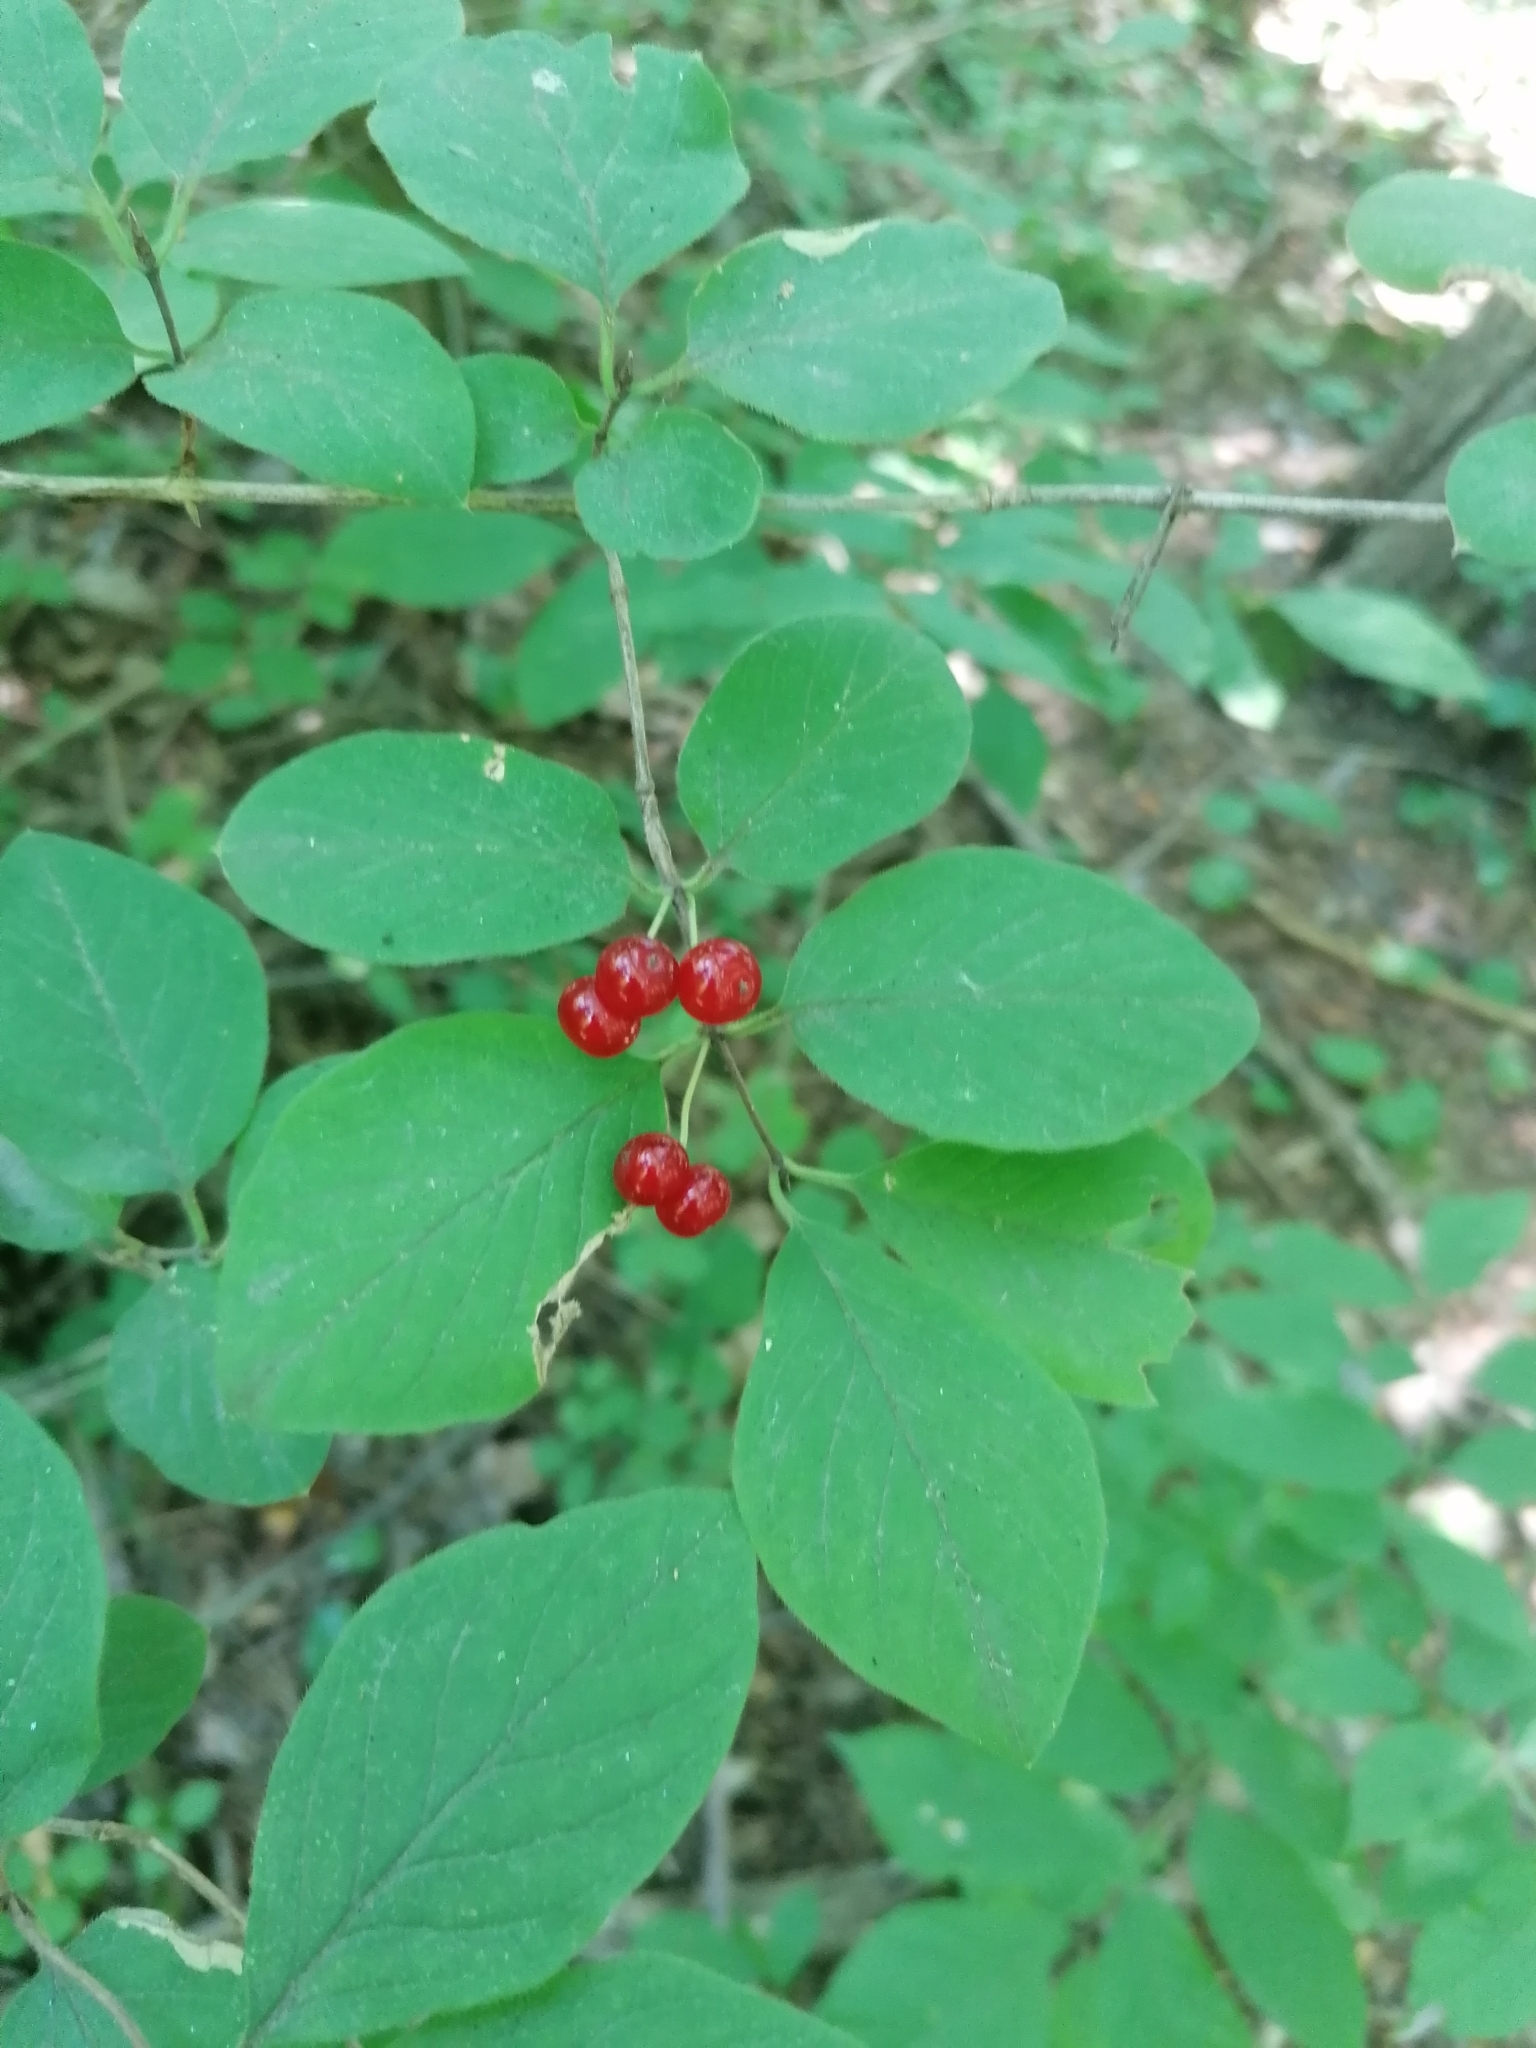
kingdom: Plantae
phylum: Tracheophyta
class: Magnoliopsida
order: Rosales
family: Rhamnaceae
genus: Frangula
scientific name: Frangula alnus
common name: Alder buckthorn
